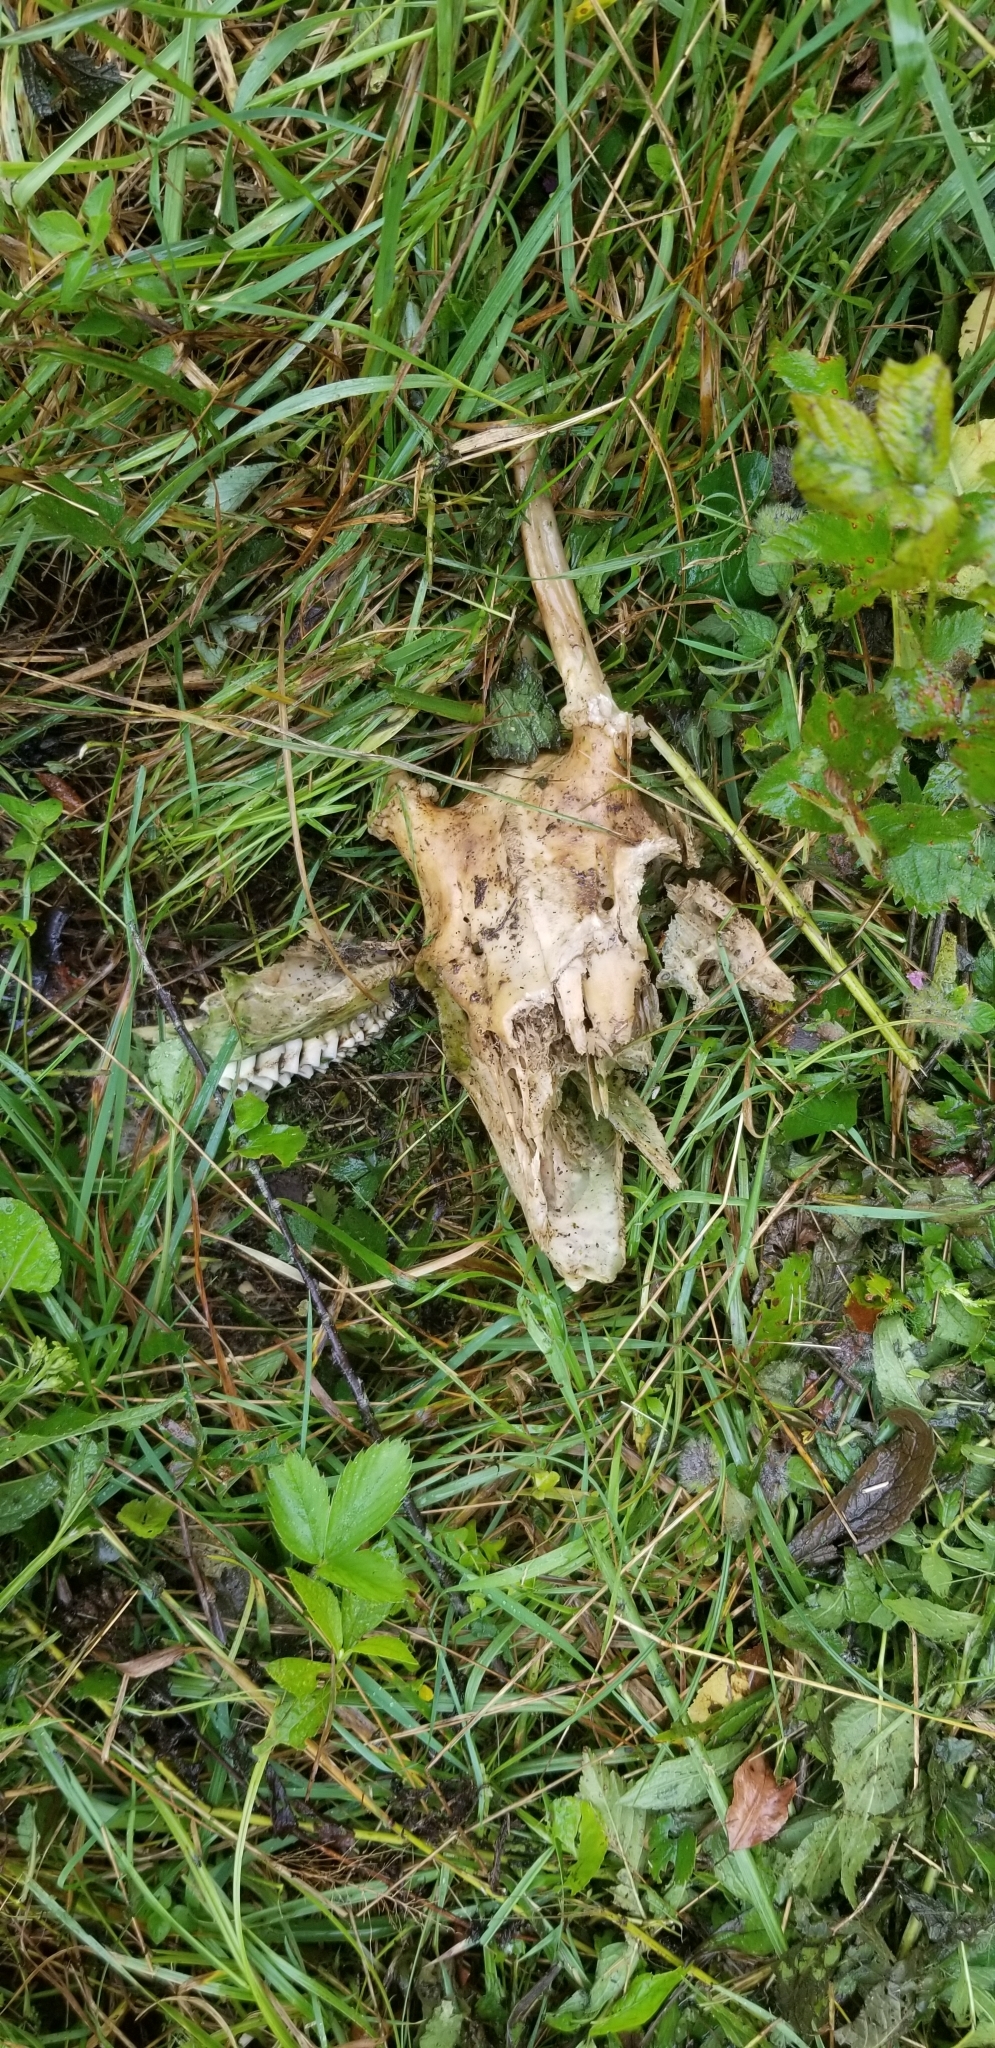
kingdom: Animalia
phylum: Chordata
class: Mammalia
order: Artiodactyla
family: Cervidae
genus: Odocoileus
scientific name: Odocoileus virginianus
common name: White-tailed deer
